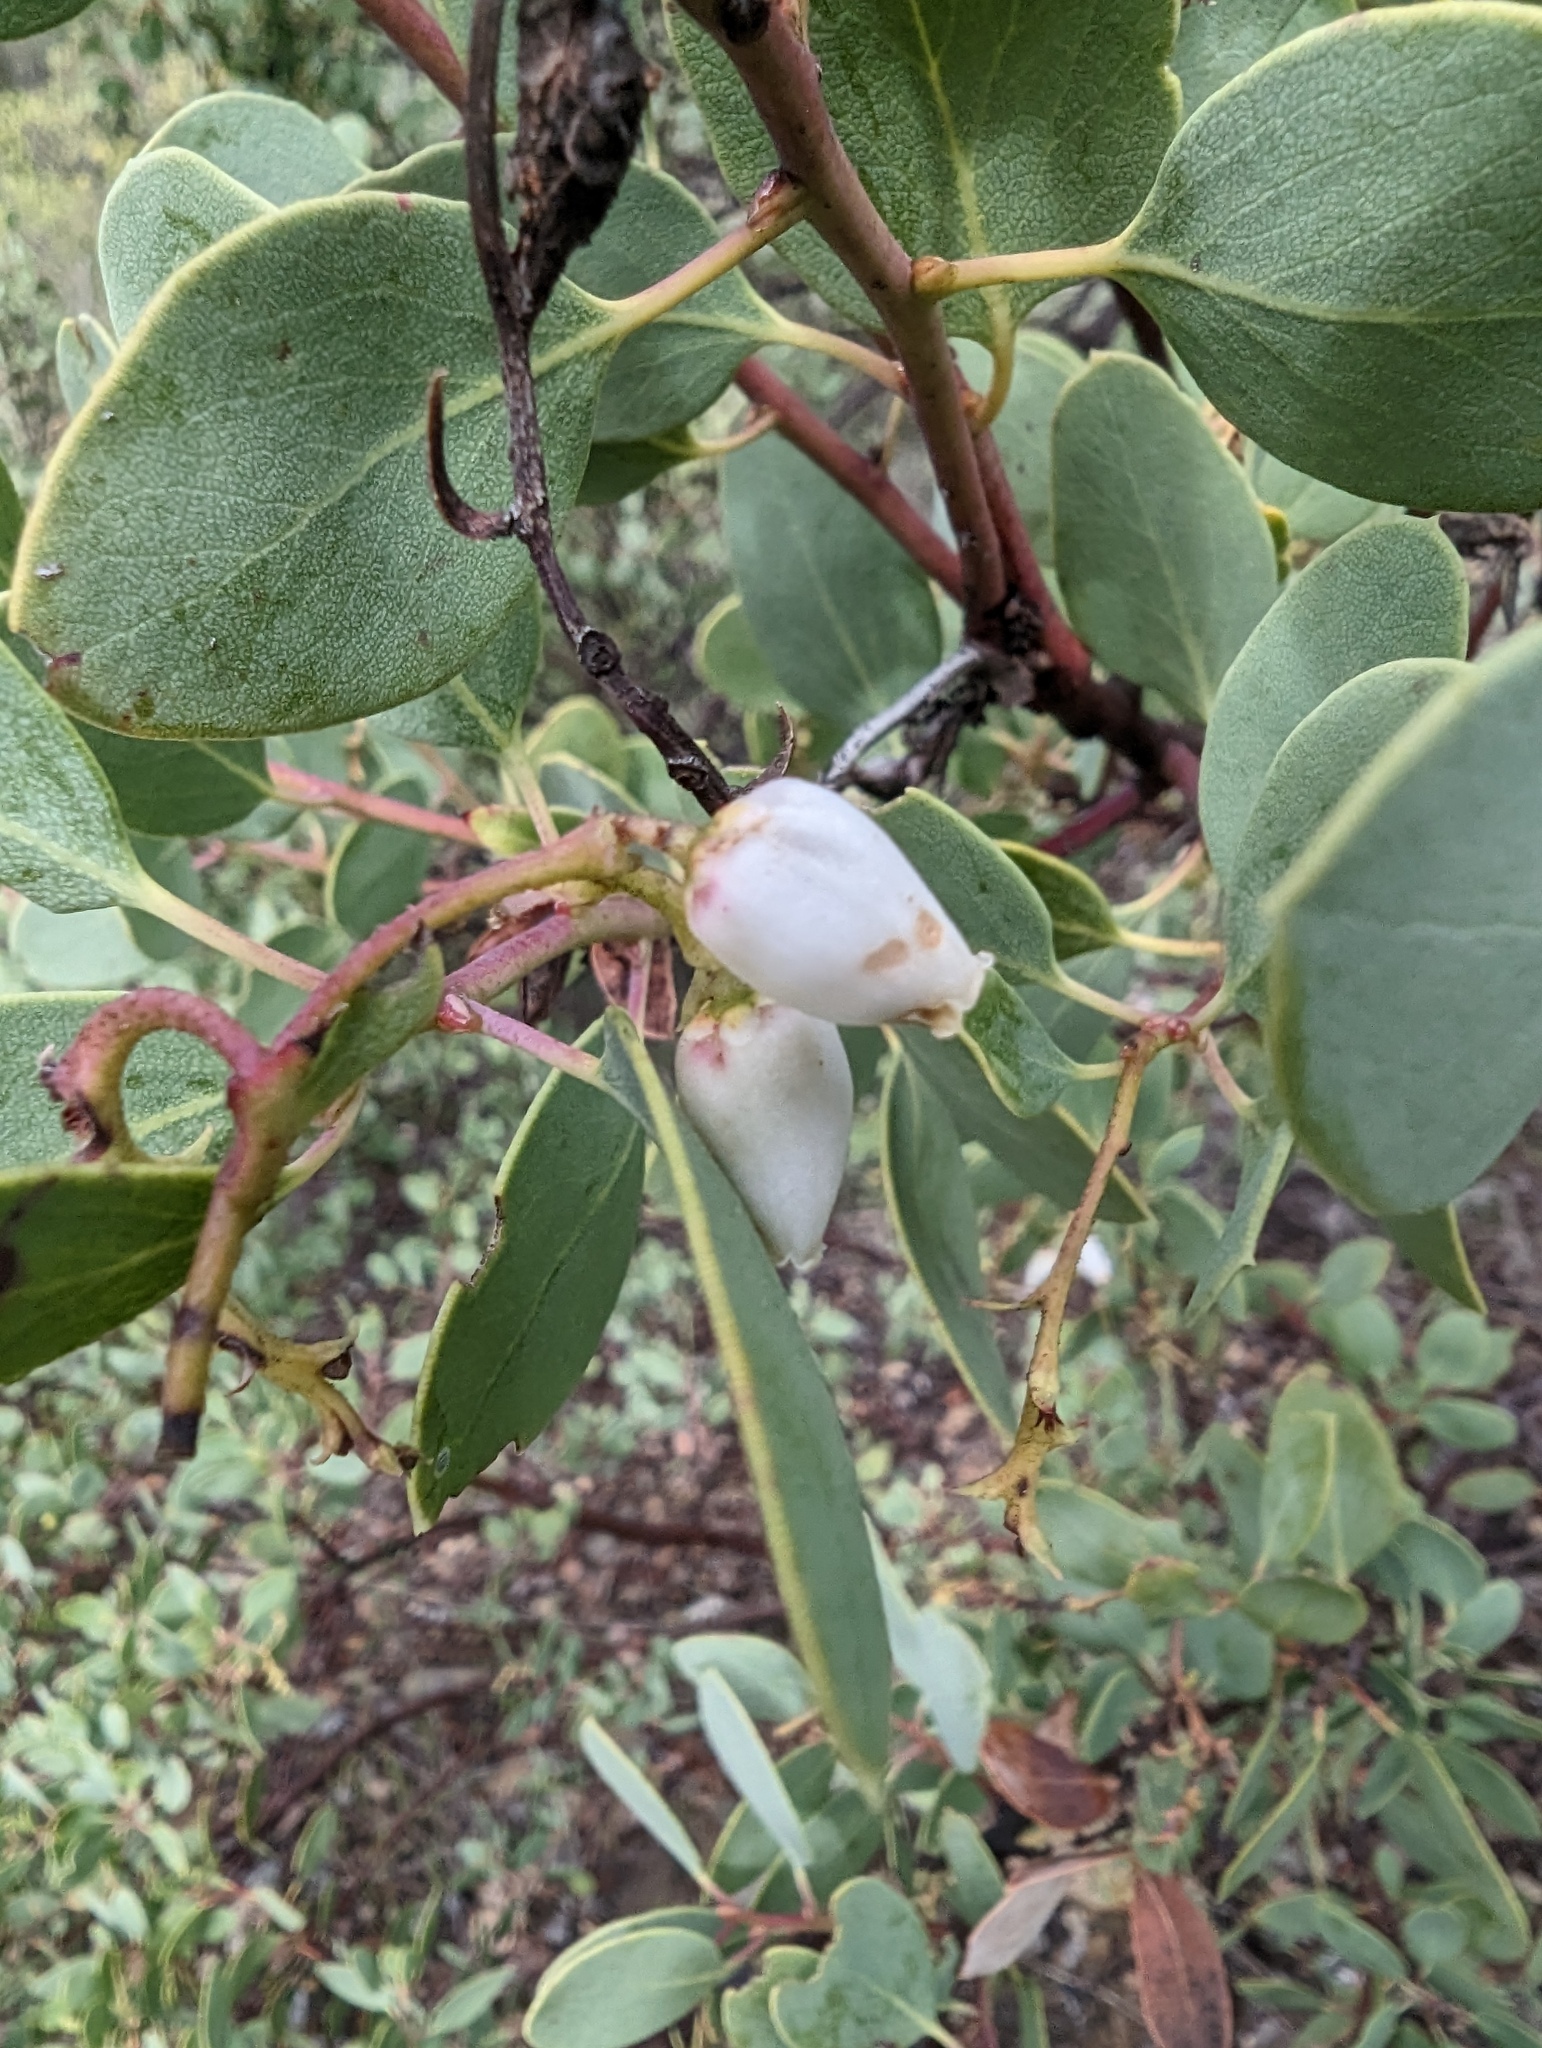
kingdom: Plantae
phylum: Tracheophyta
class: Magnoliopsida
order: Ericales
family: Ericaceae
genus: Arctostaphylos
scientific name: Arctostaphylos glauca
